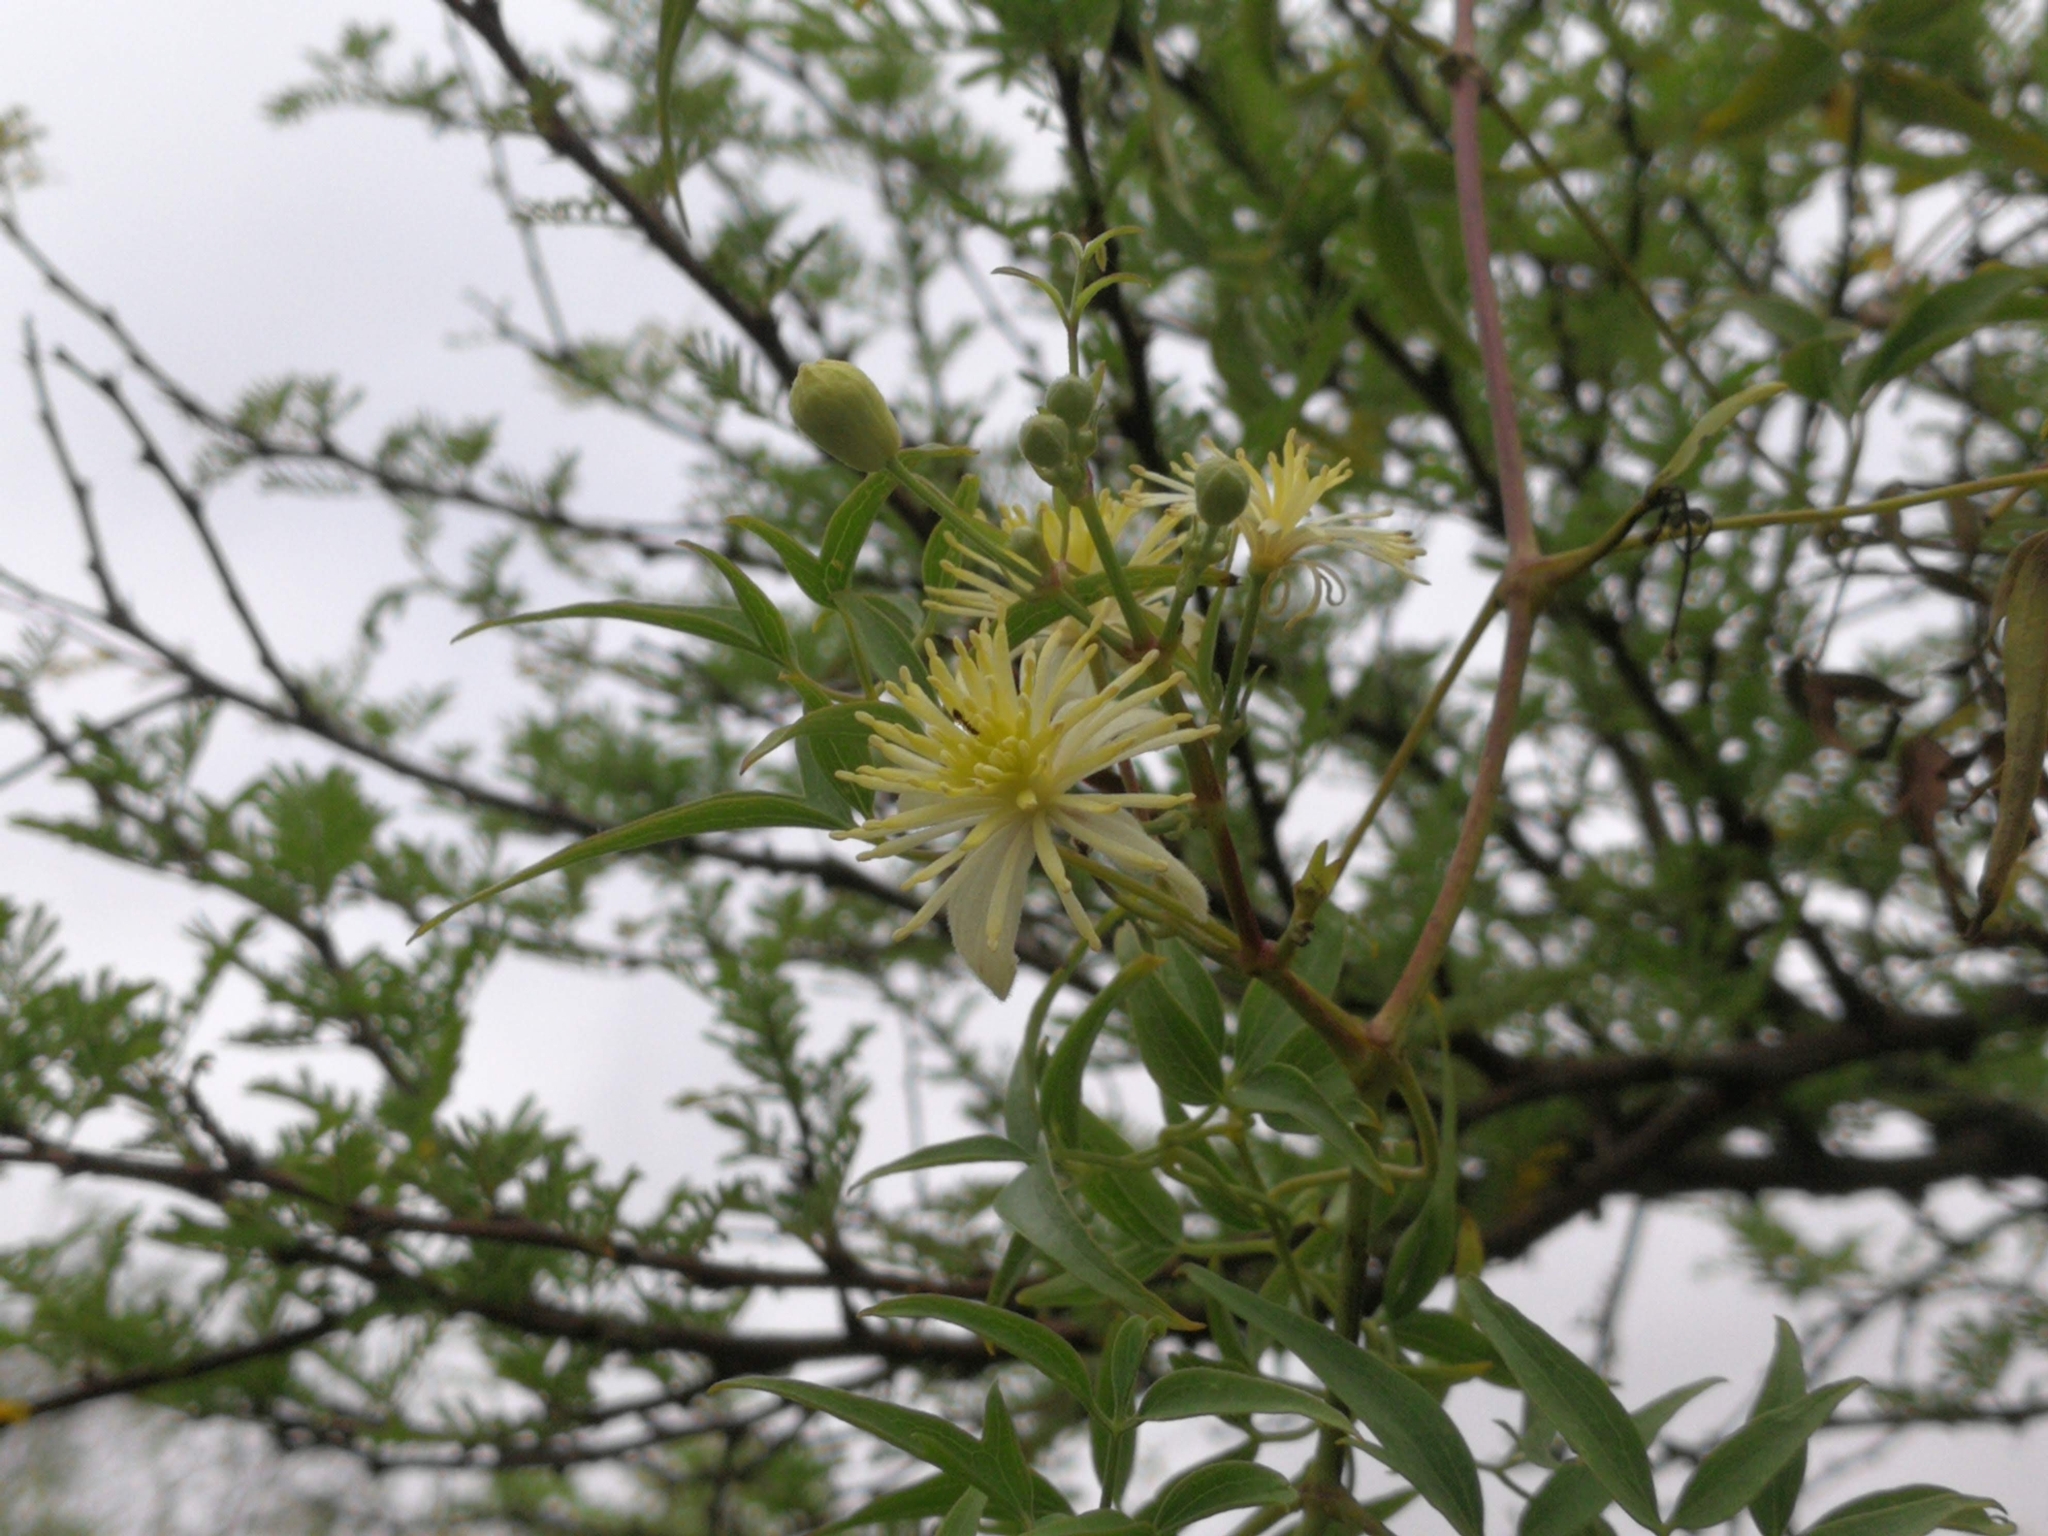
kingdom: Plantae
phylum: Tracheophyta
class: Magnoliopsida
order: Ranunculales
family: Ranunculaceae
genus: Clematis
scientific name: Clematis montevidensis
